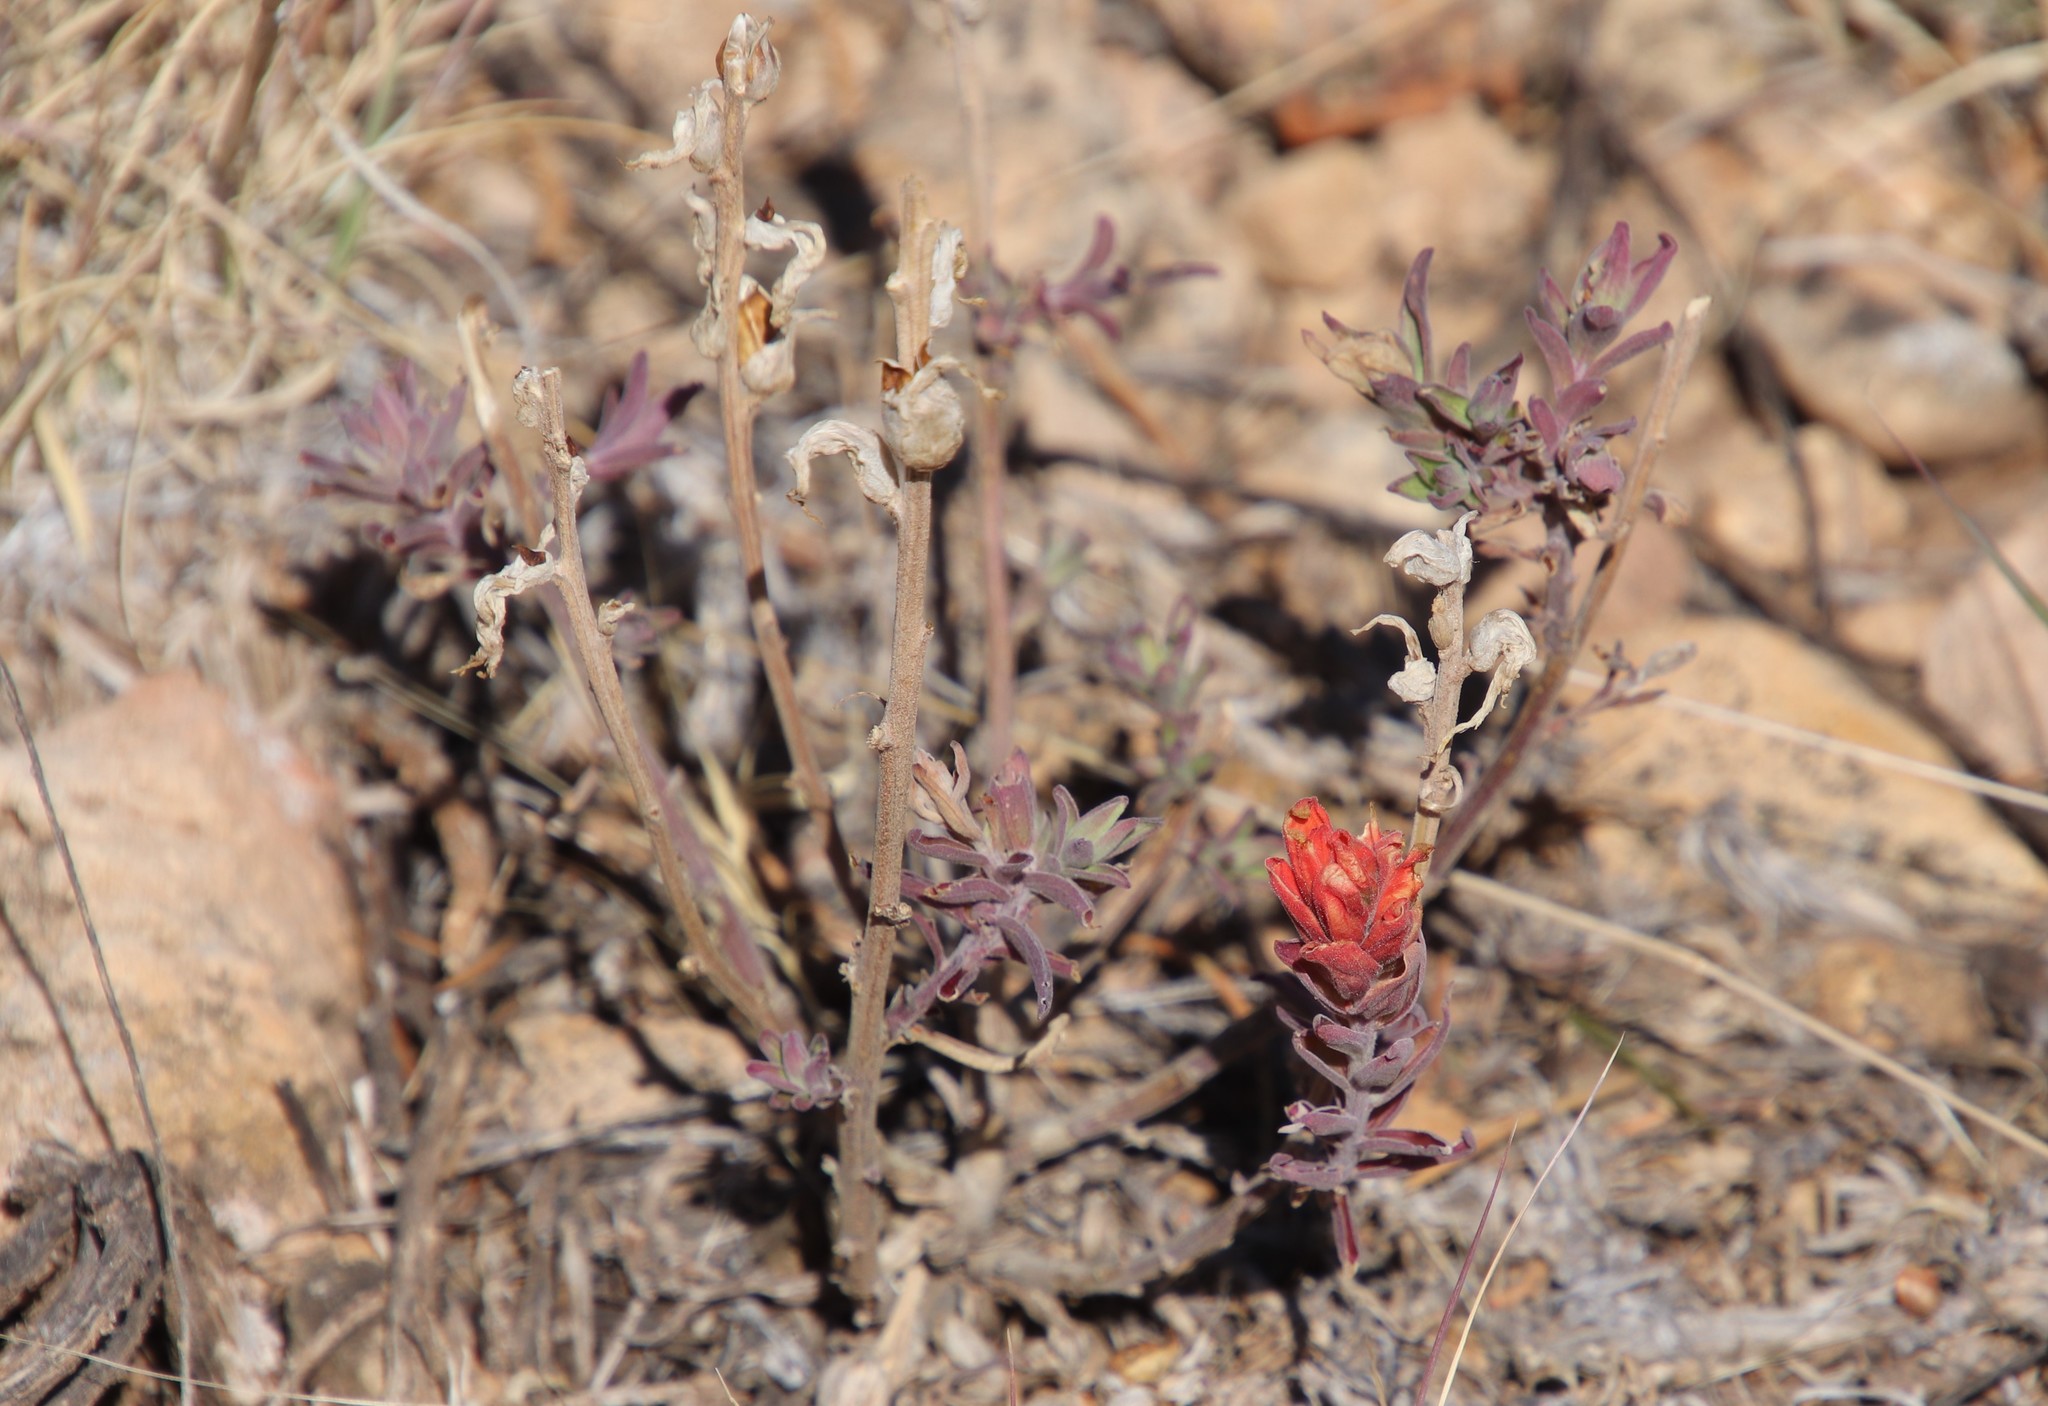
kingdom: Plantae
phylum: Tracheophyta
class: Magnoliopsida
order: Lamiales
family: Orobanchaceae
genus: Castilleja
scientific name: Castilleja
